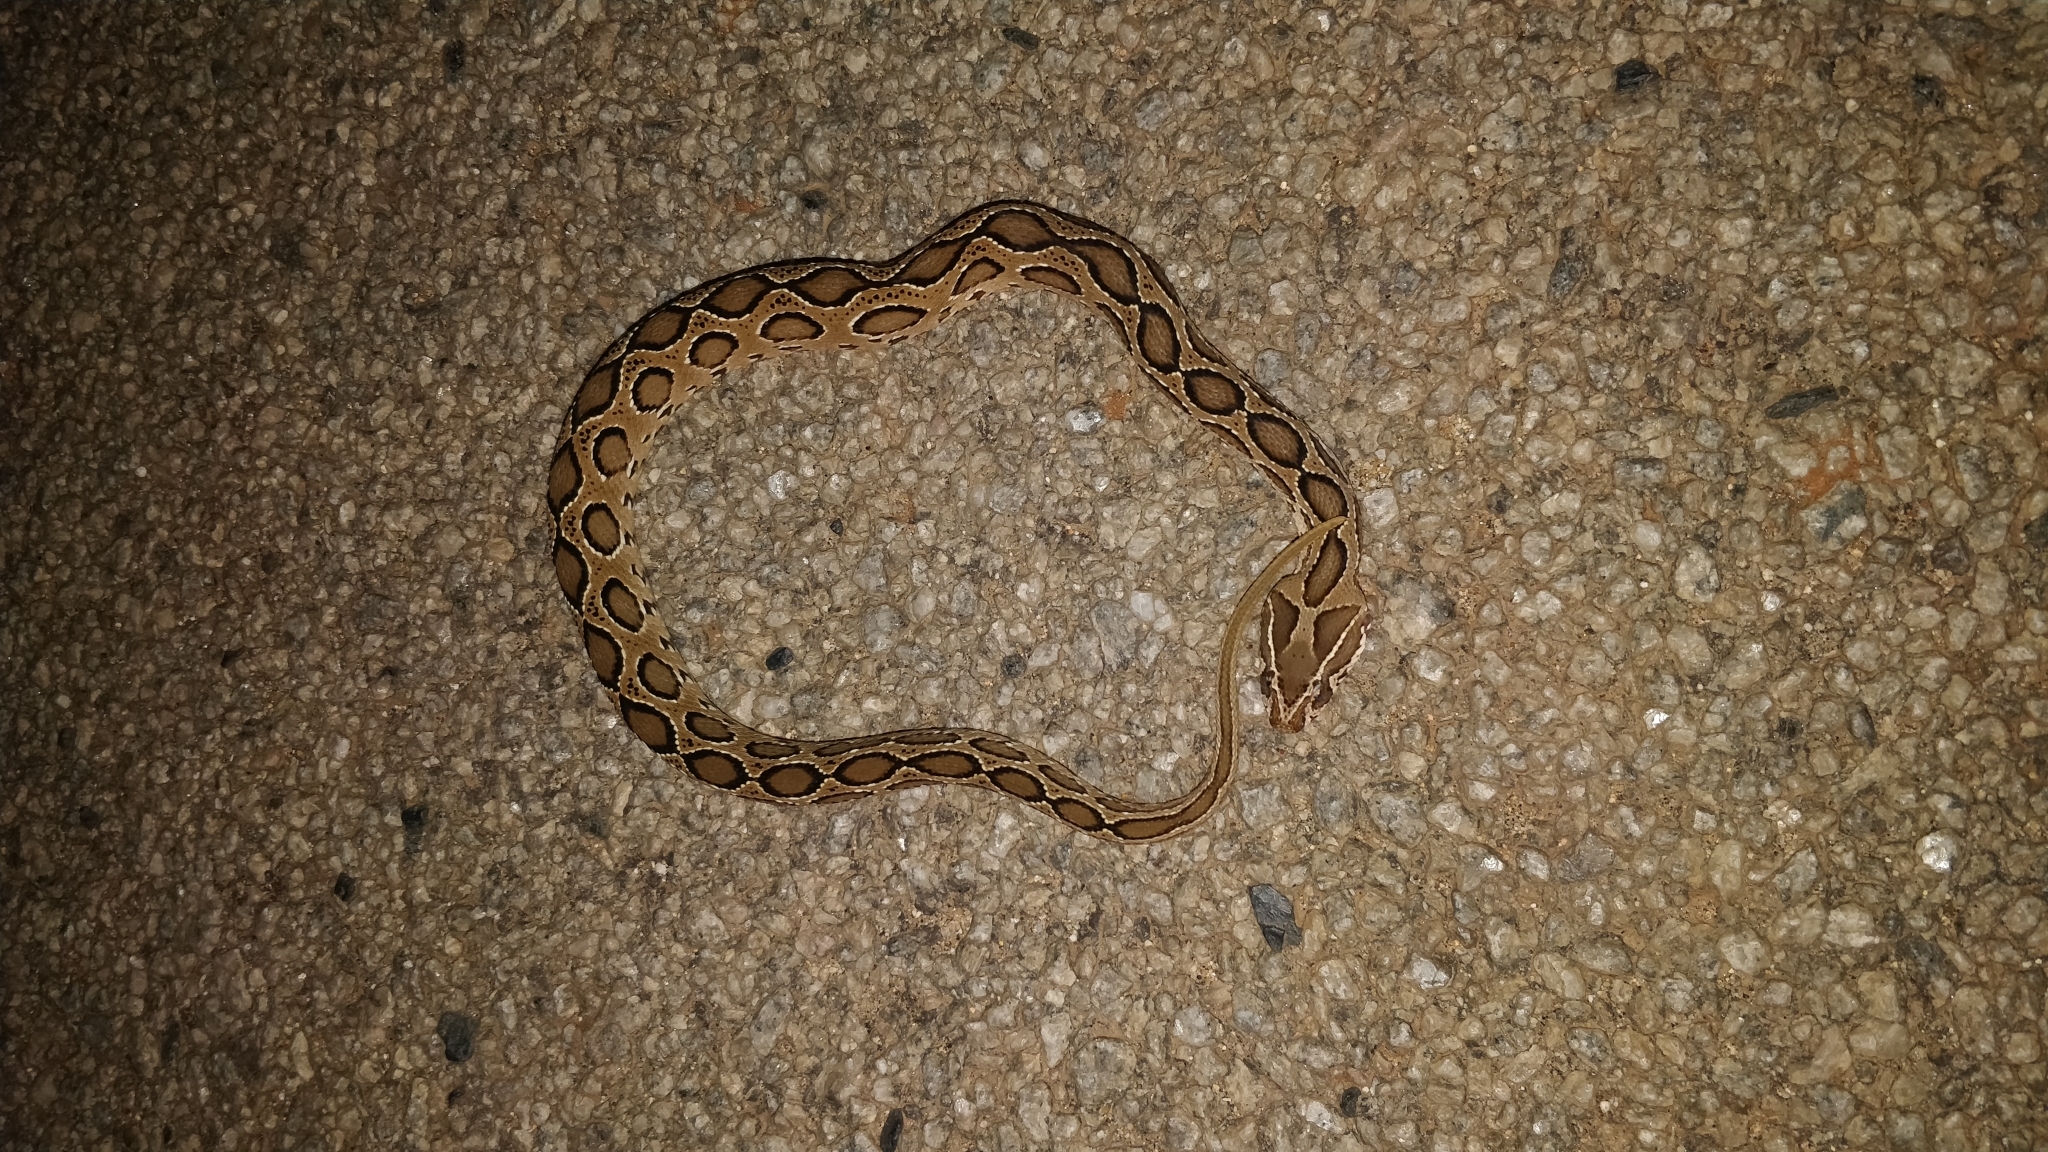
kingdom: Animalia
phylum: Chordata
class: Squamata
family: Viperidae
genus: Daboia
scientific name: Daboia russelii
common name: Western russel’s viper
